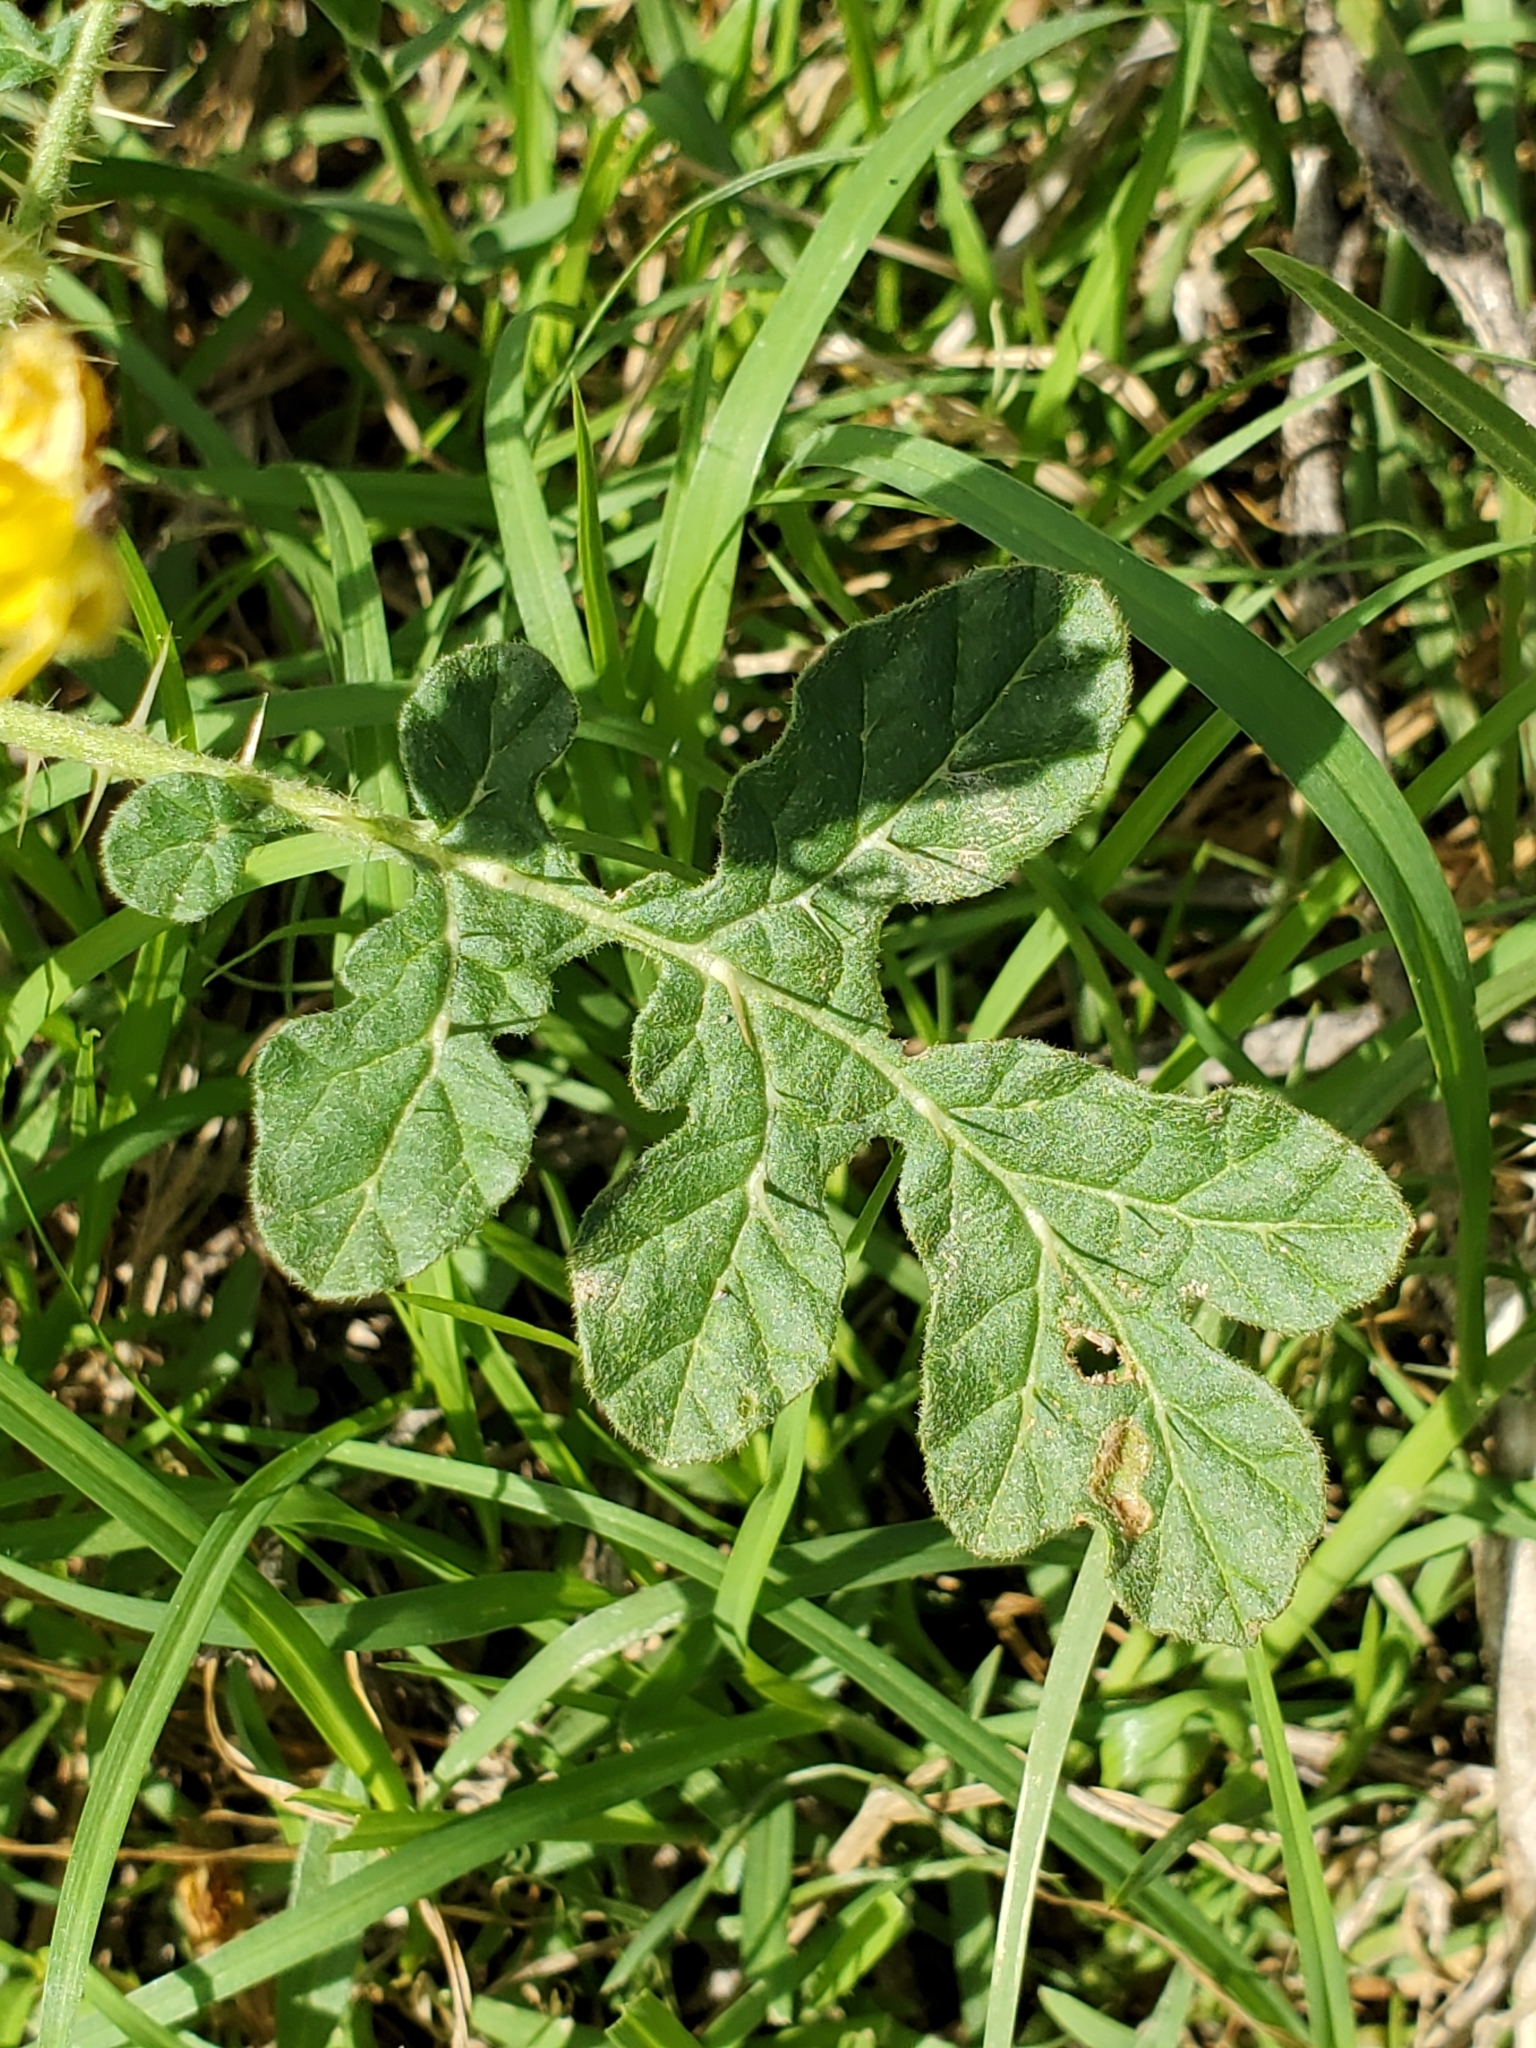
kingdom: Plantae
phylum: Tracheophyta
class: Magnoliopsida
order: Solanales
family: Solanaceae
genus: Solanum
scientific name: Solanum angustifolium
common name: Buffalobur nightshade
